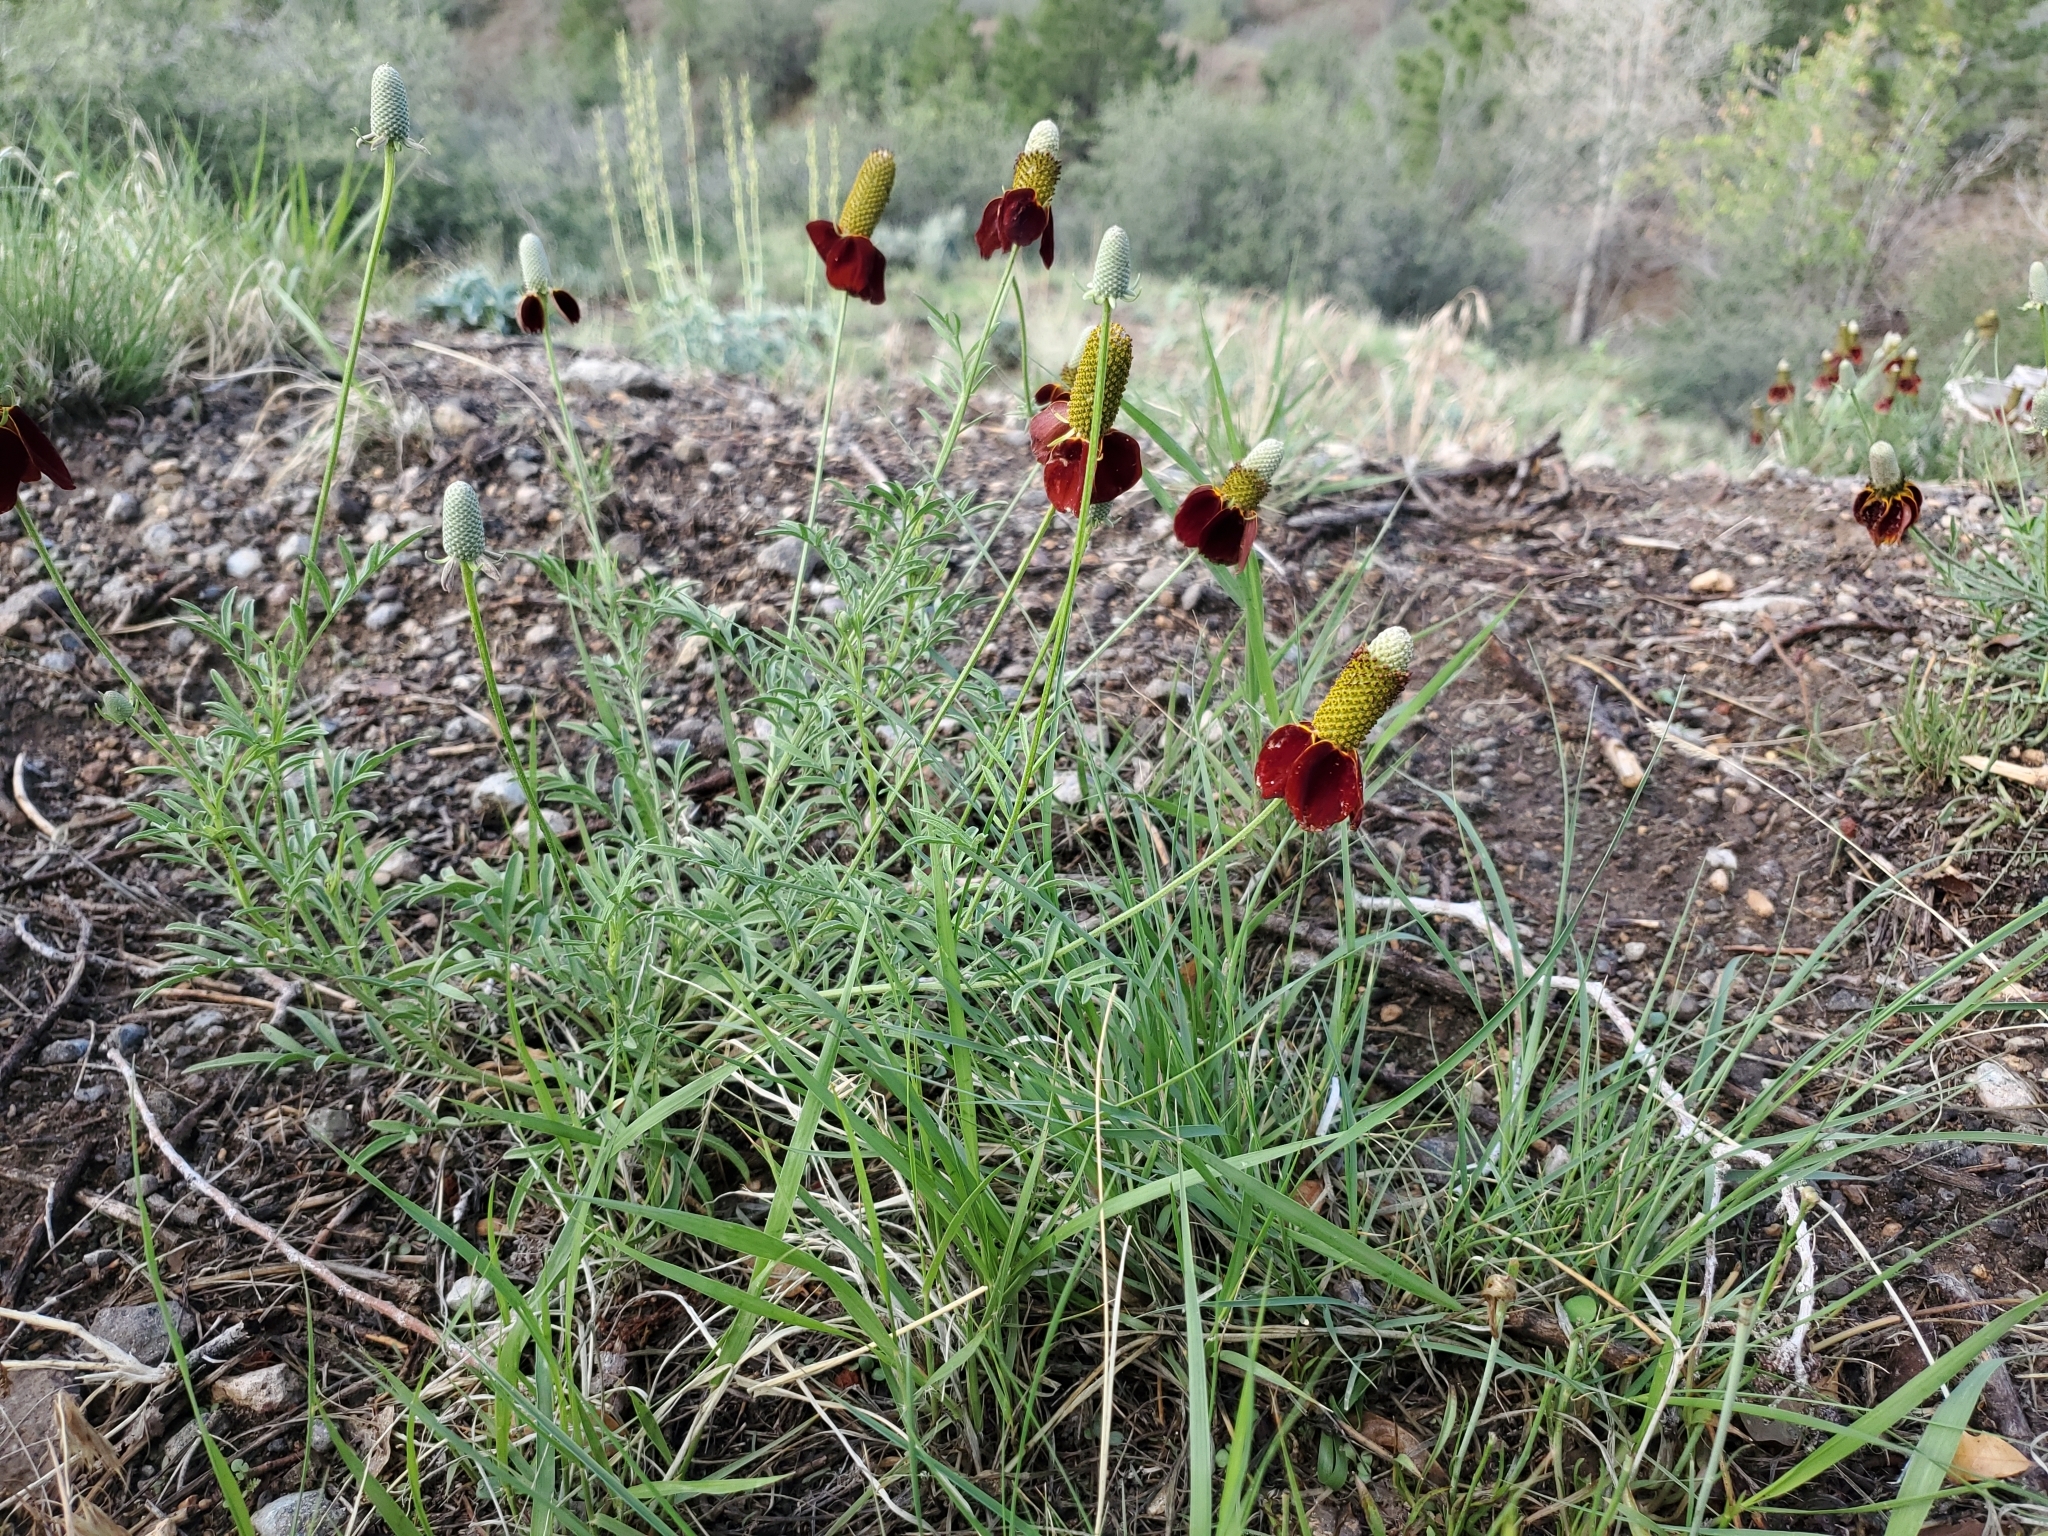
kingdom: Plantae
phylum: Tracheophyta
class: Magnoliopsida
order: Asterales
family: Asteraceae
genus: Ratibida
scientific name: Ratibida columnifera
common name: Prairie coneflower
